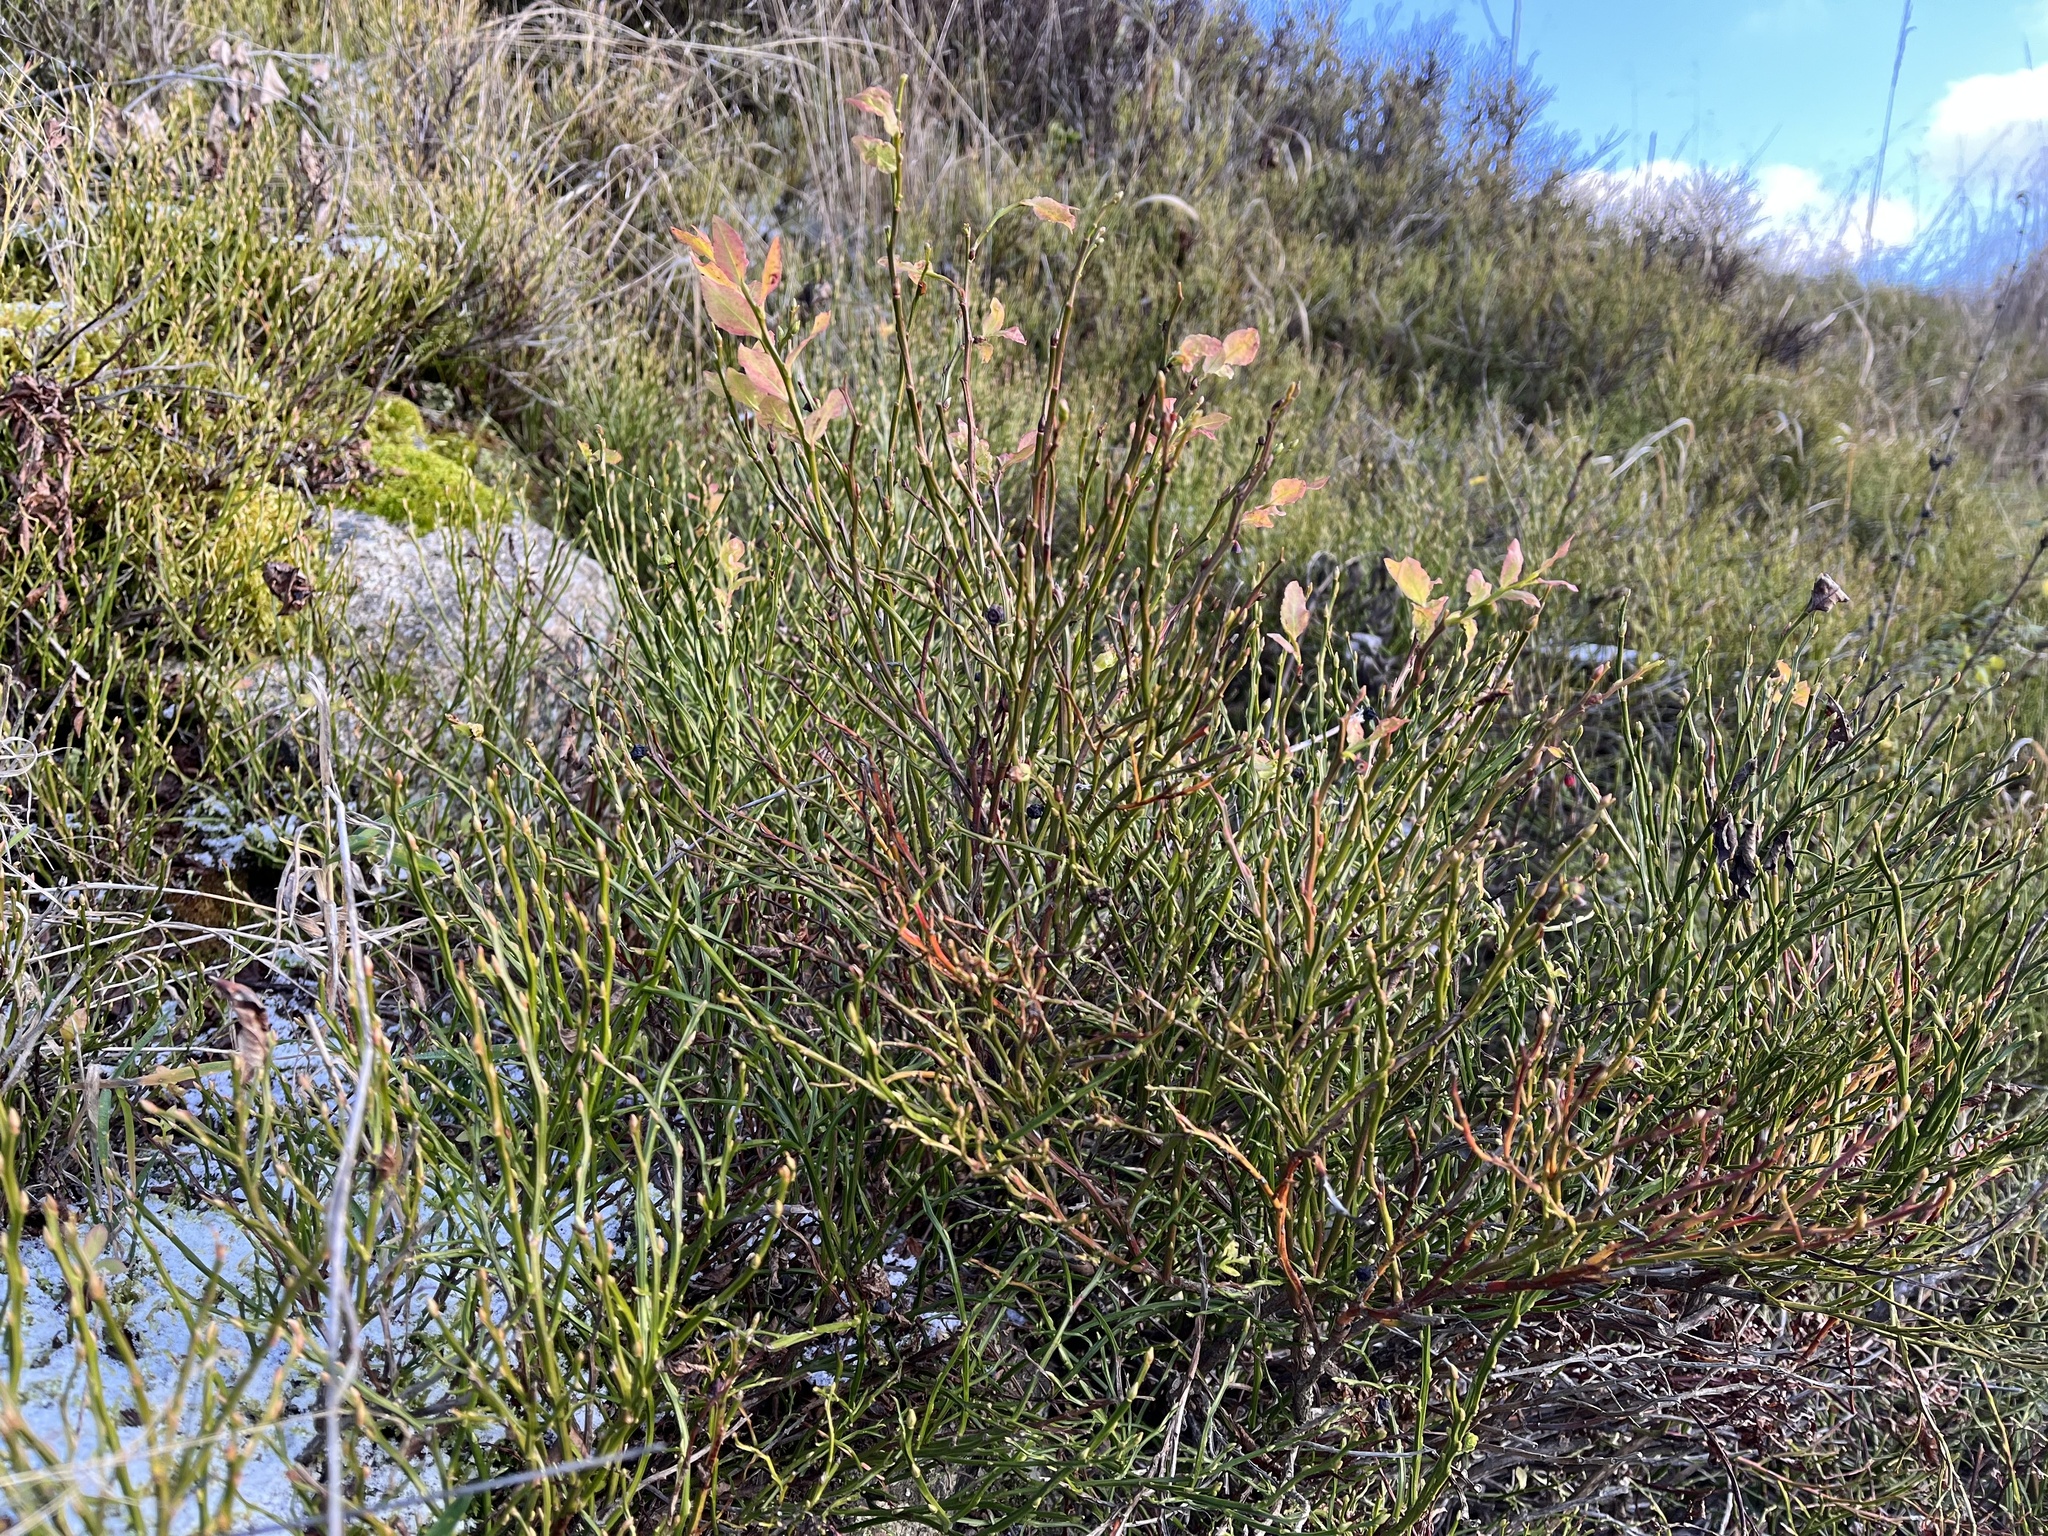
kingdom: Plantae
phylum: Tracheophyta
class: Magnoliopsida
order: Ericales
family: Ericaceae
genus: Vaccinium
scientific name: Vaccinium myrtillus
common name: Bilberry
